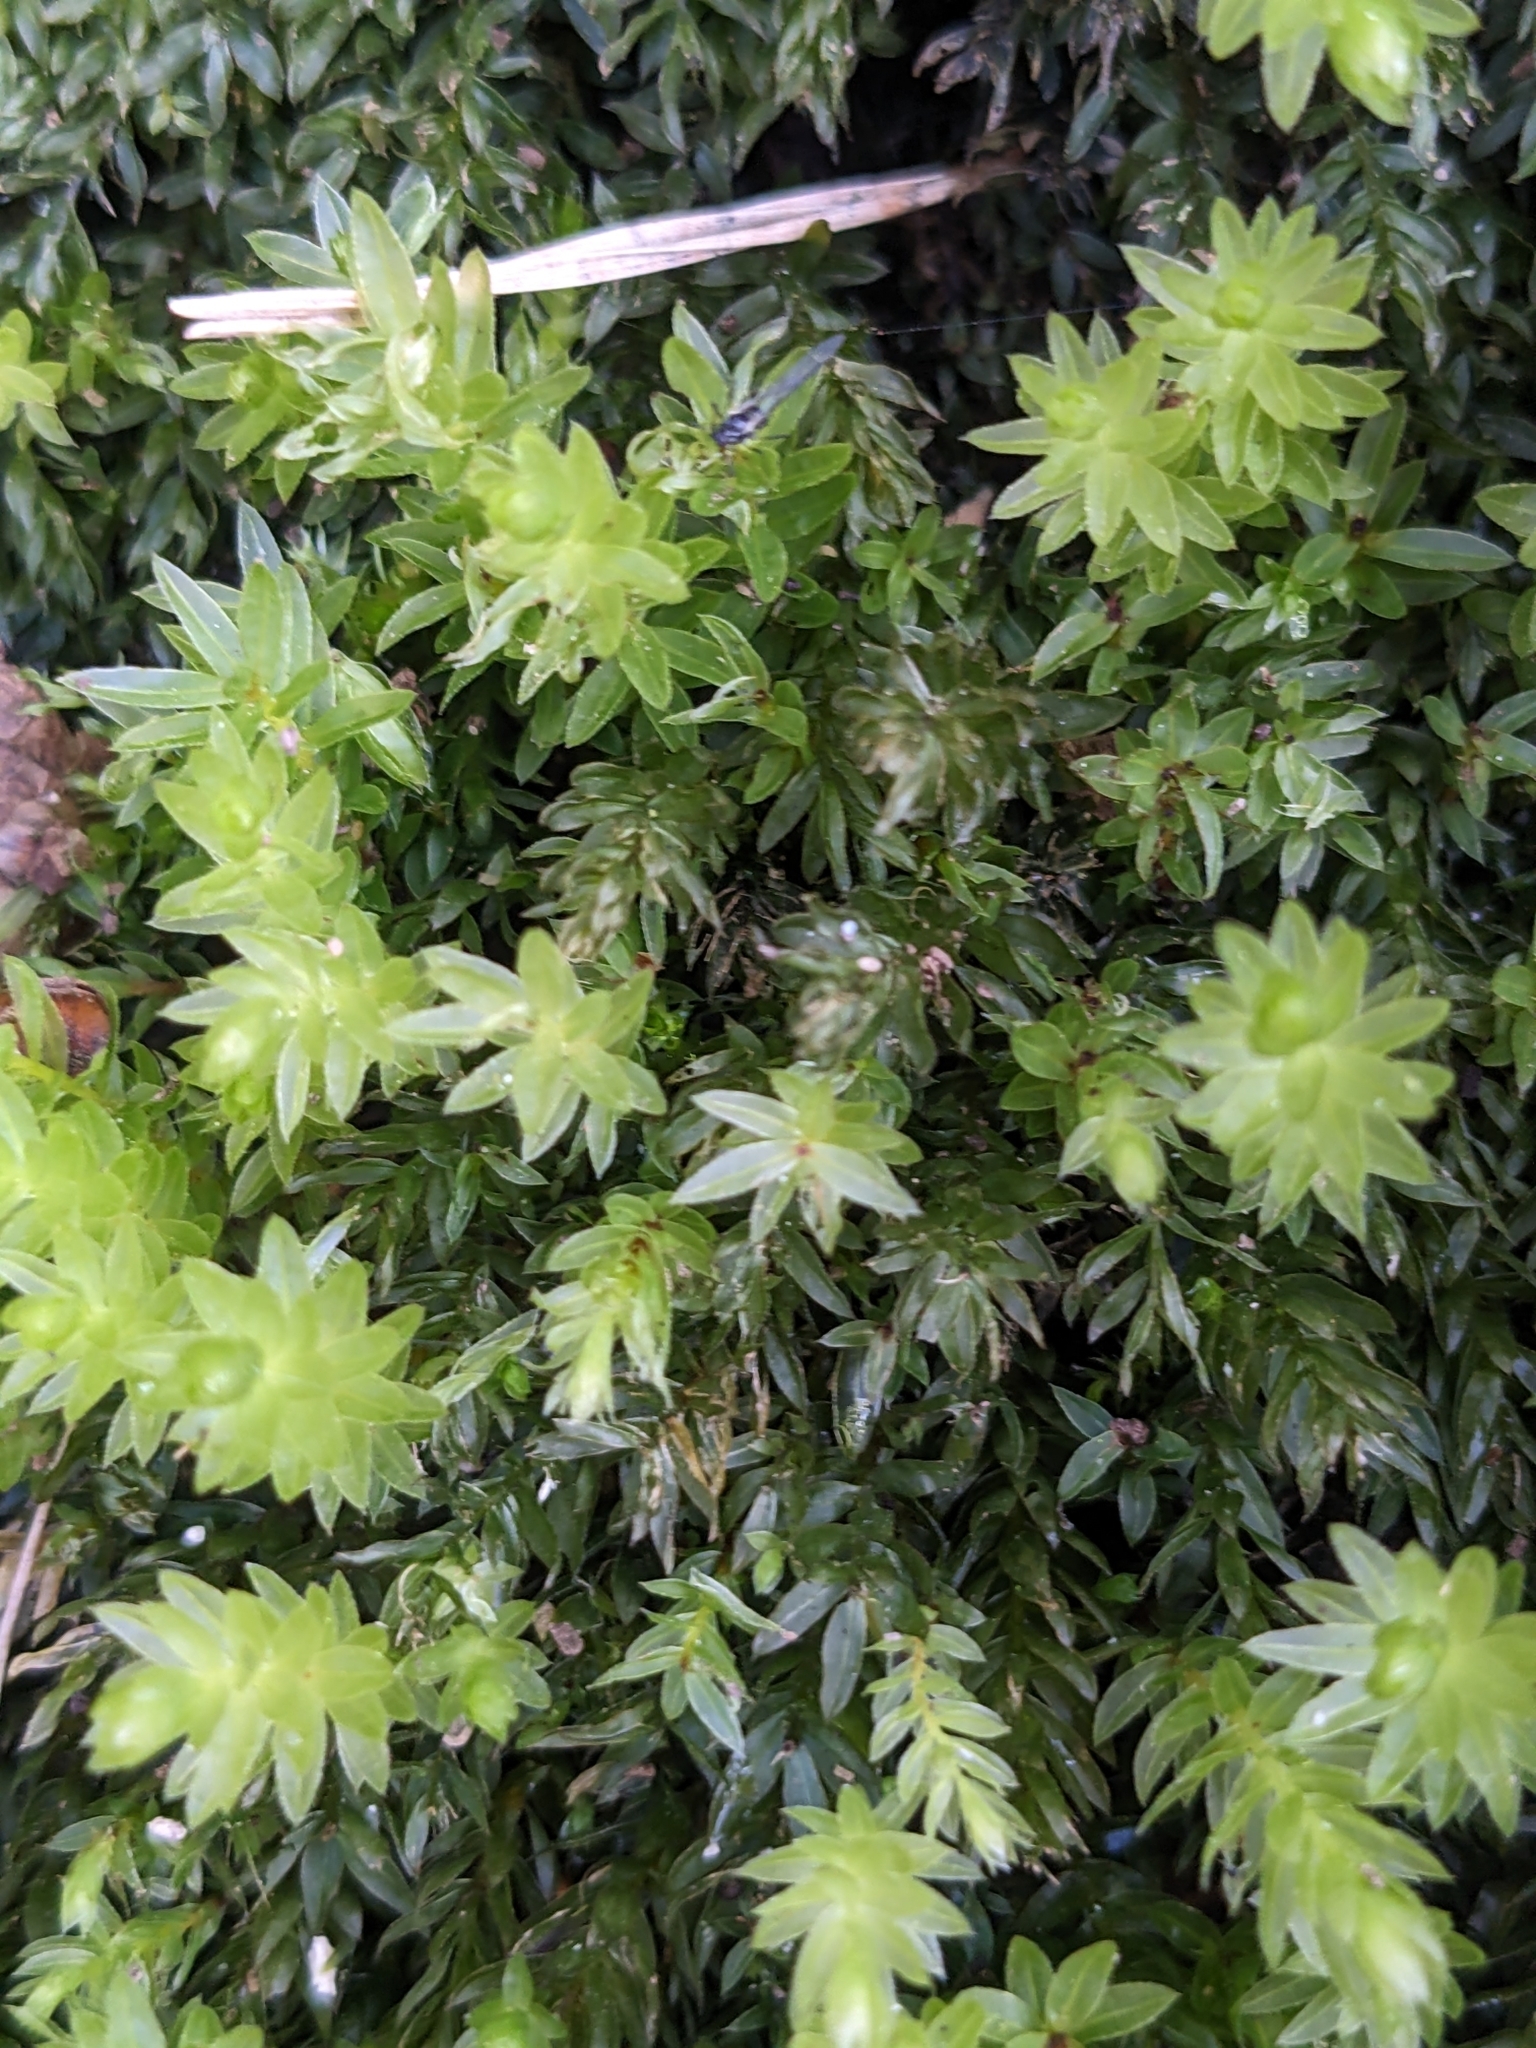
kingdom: Plantae
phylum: Bryophyta
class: Bryopsida
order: Bryales
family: Mniaceae
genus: Mnium
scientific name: Mnium hornum
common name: Swan's-neck leafy moss
